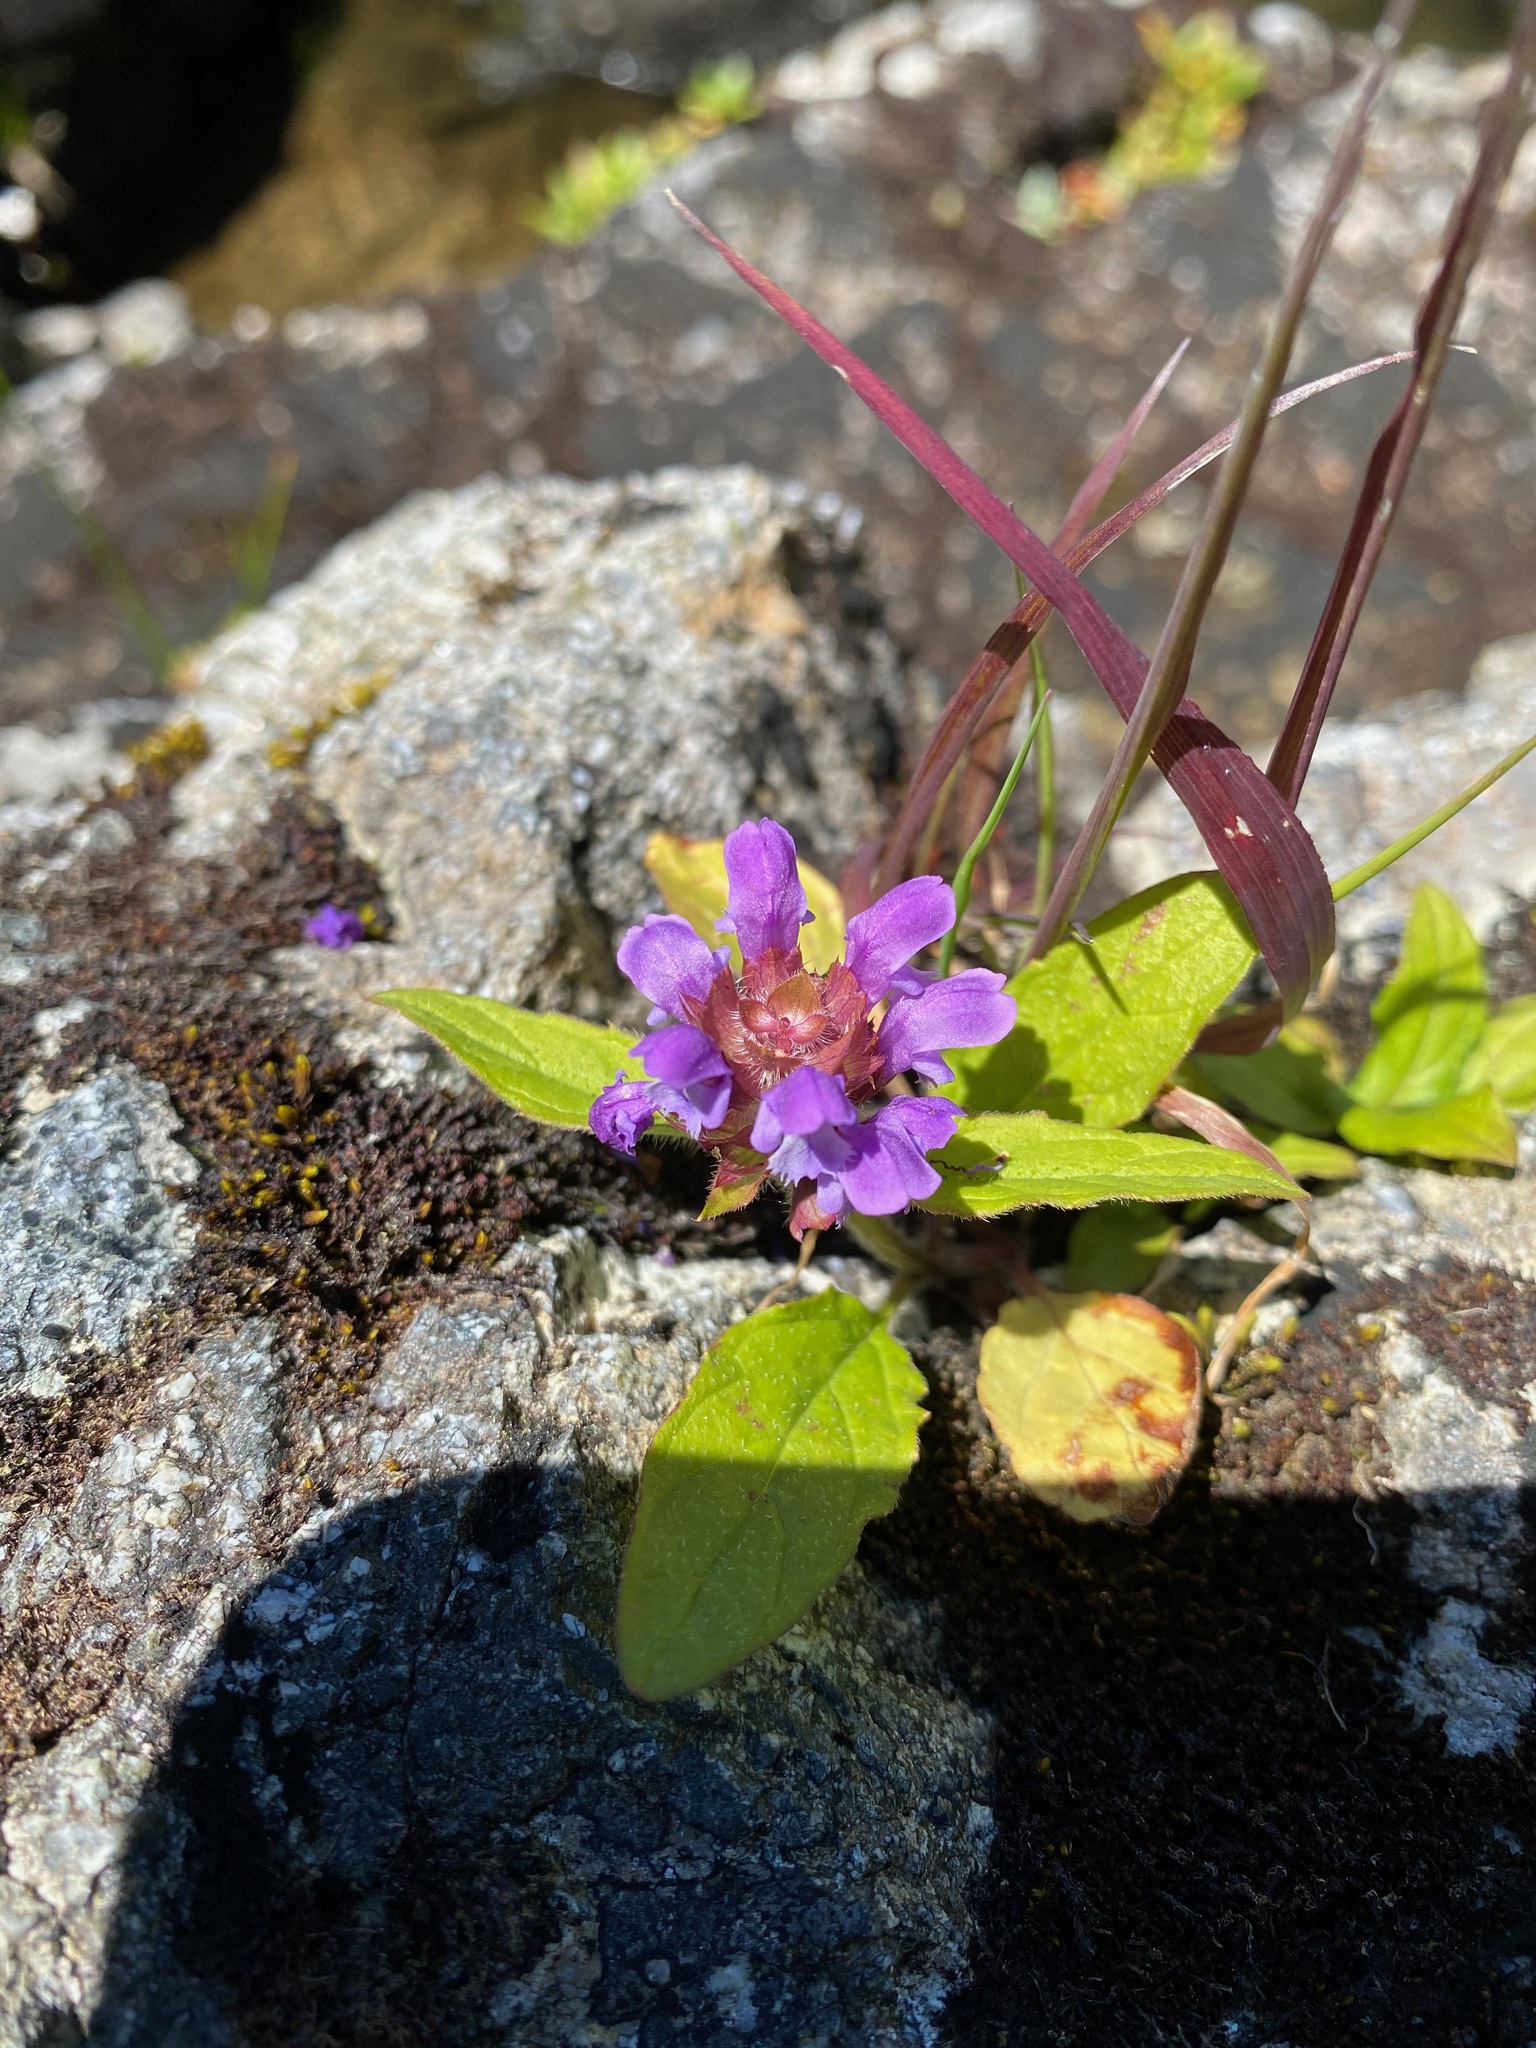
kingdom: Plantae
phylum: Tracheophyta
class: Magnoliopsida
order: Lamiales
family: Lamiaceae
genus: Prunella
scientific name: Prunella vulgaris
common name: Heal-all
